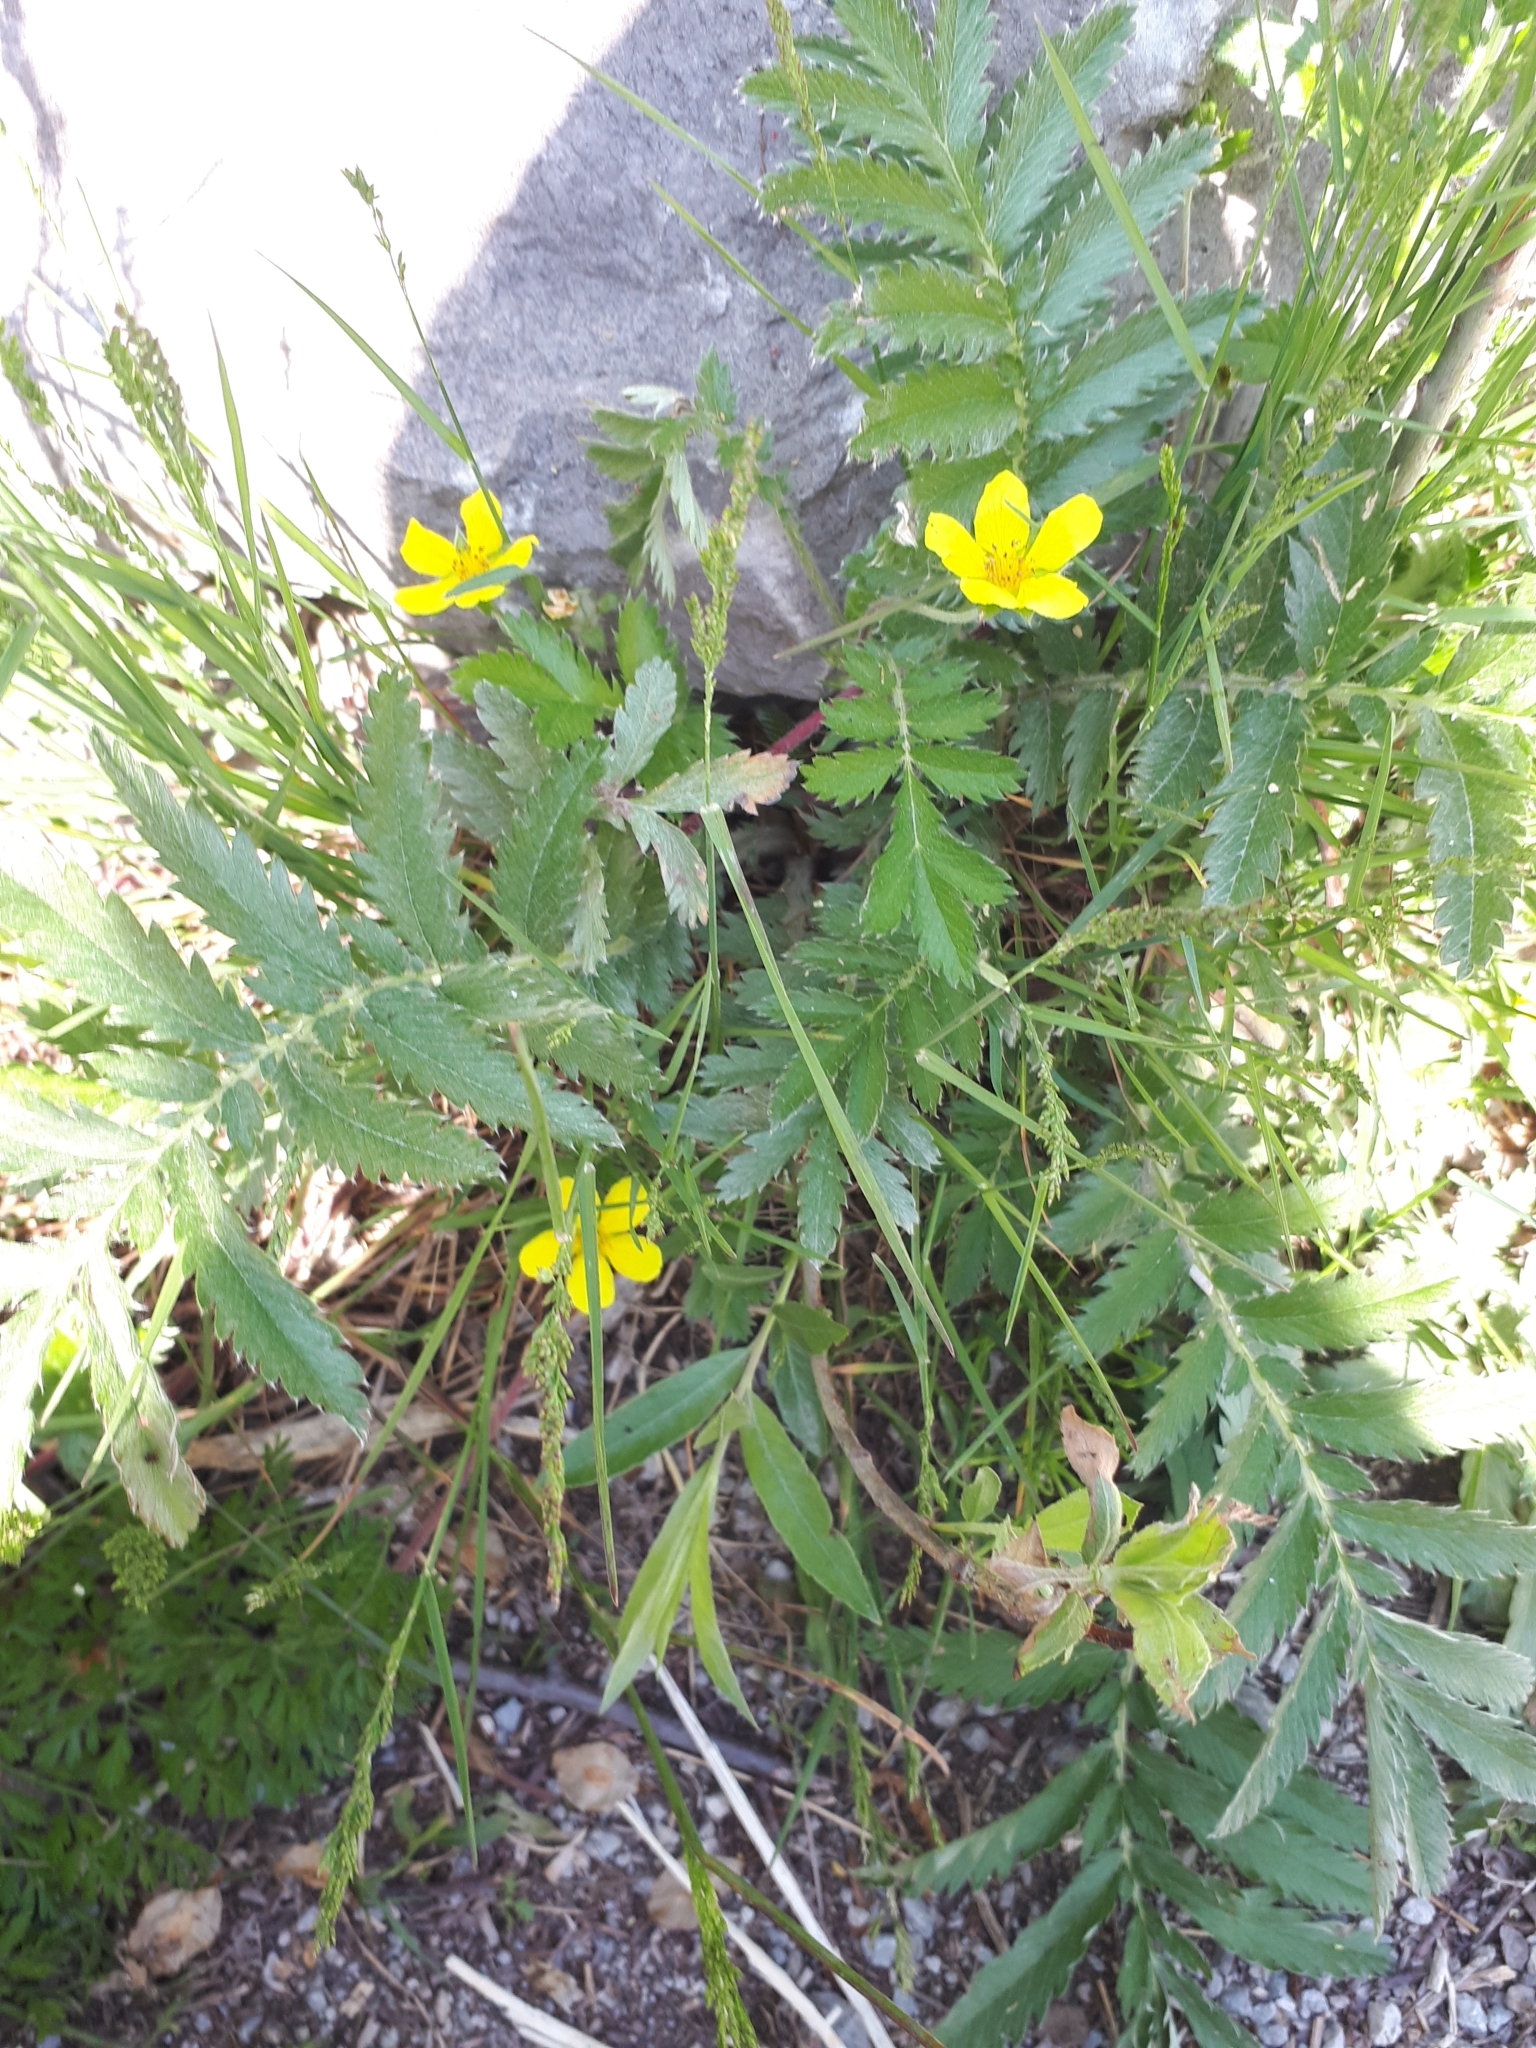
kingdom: Plantae
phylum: Tracheophyta
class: Magnoliopsida
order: Rosales
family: Rosaceae
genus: Argentina
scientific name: Argentina anserina
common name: Common silverweed
